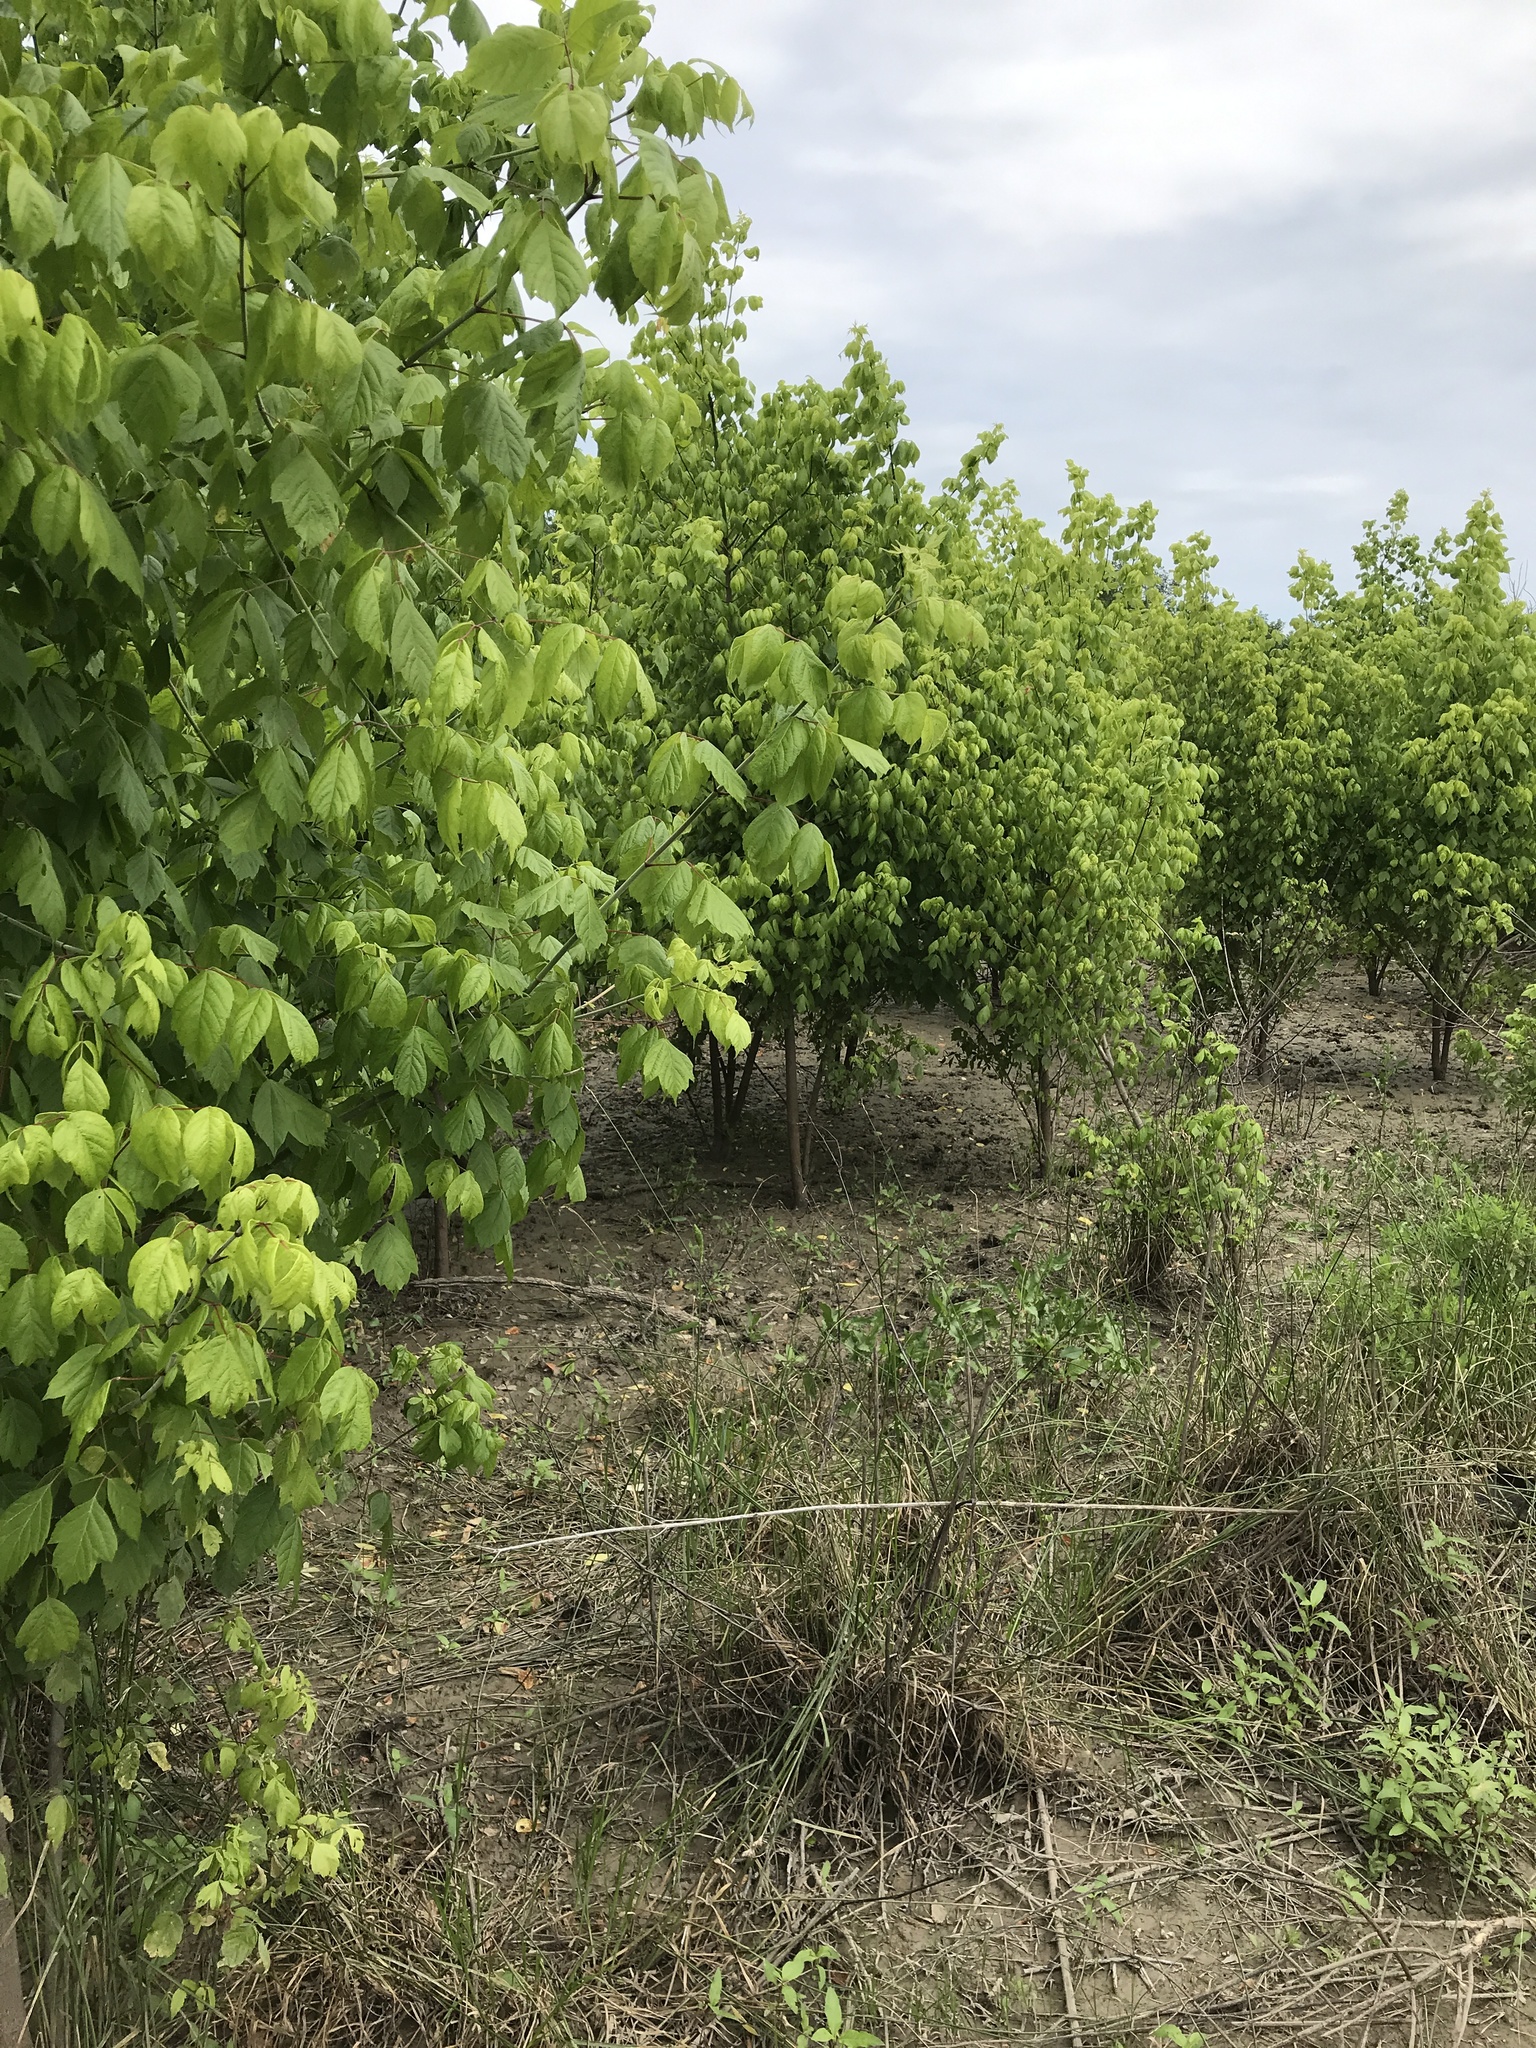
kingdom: Plantae
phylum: Tracheophyta
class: Magnoliopsida
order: Sapindales
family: Sapindaceae
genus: Acer
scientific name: Acer negundo
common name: Ashleaf maple
